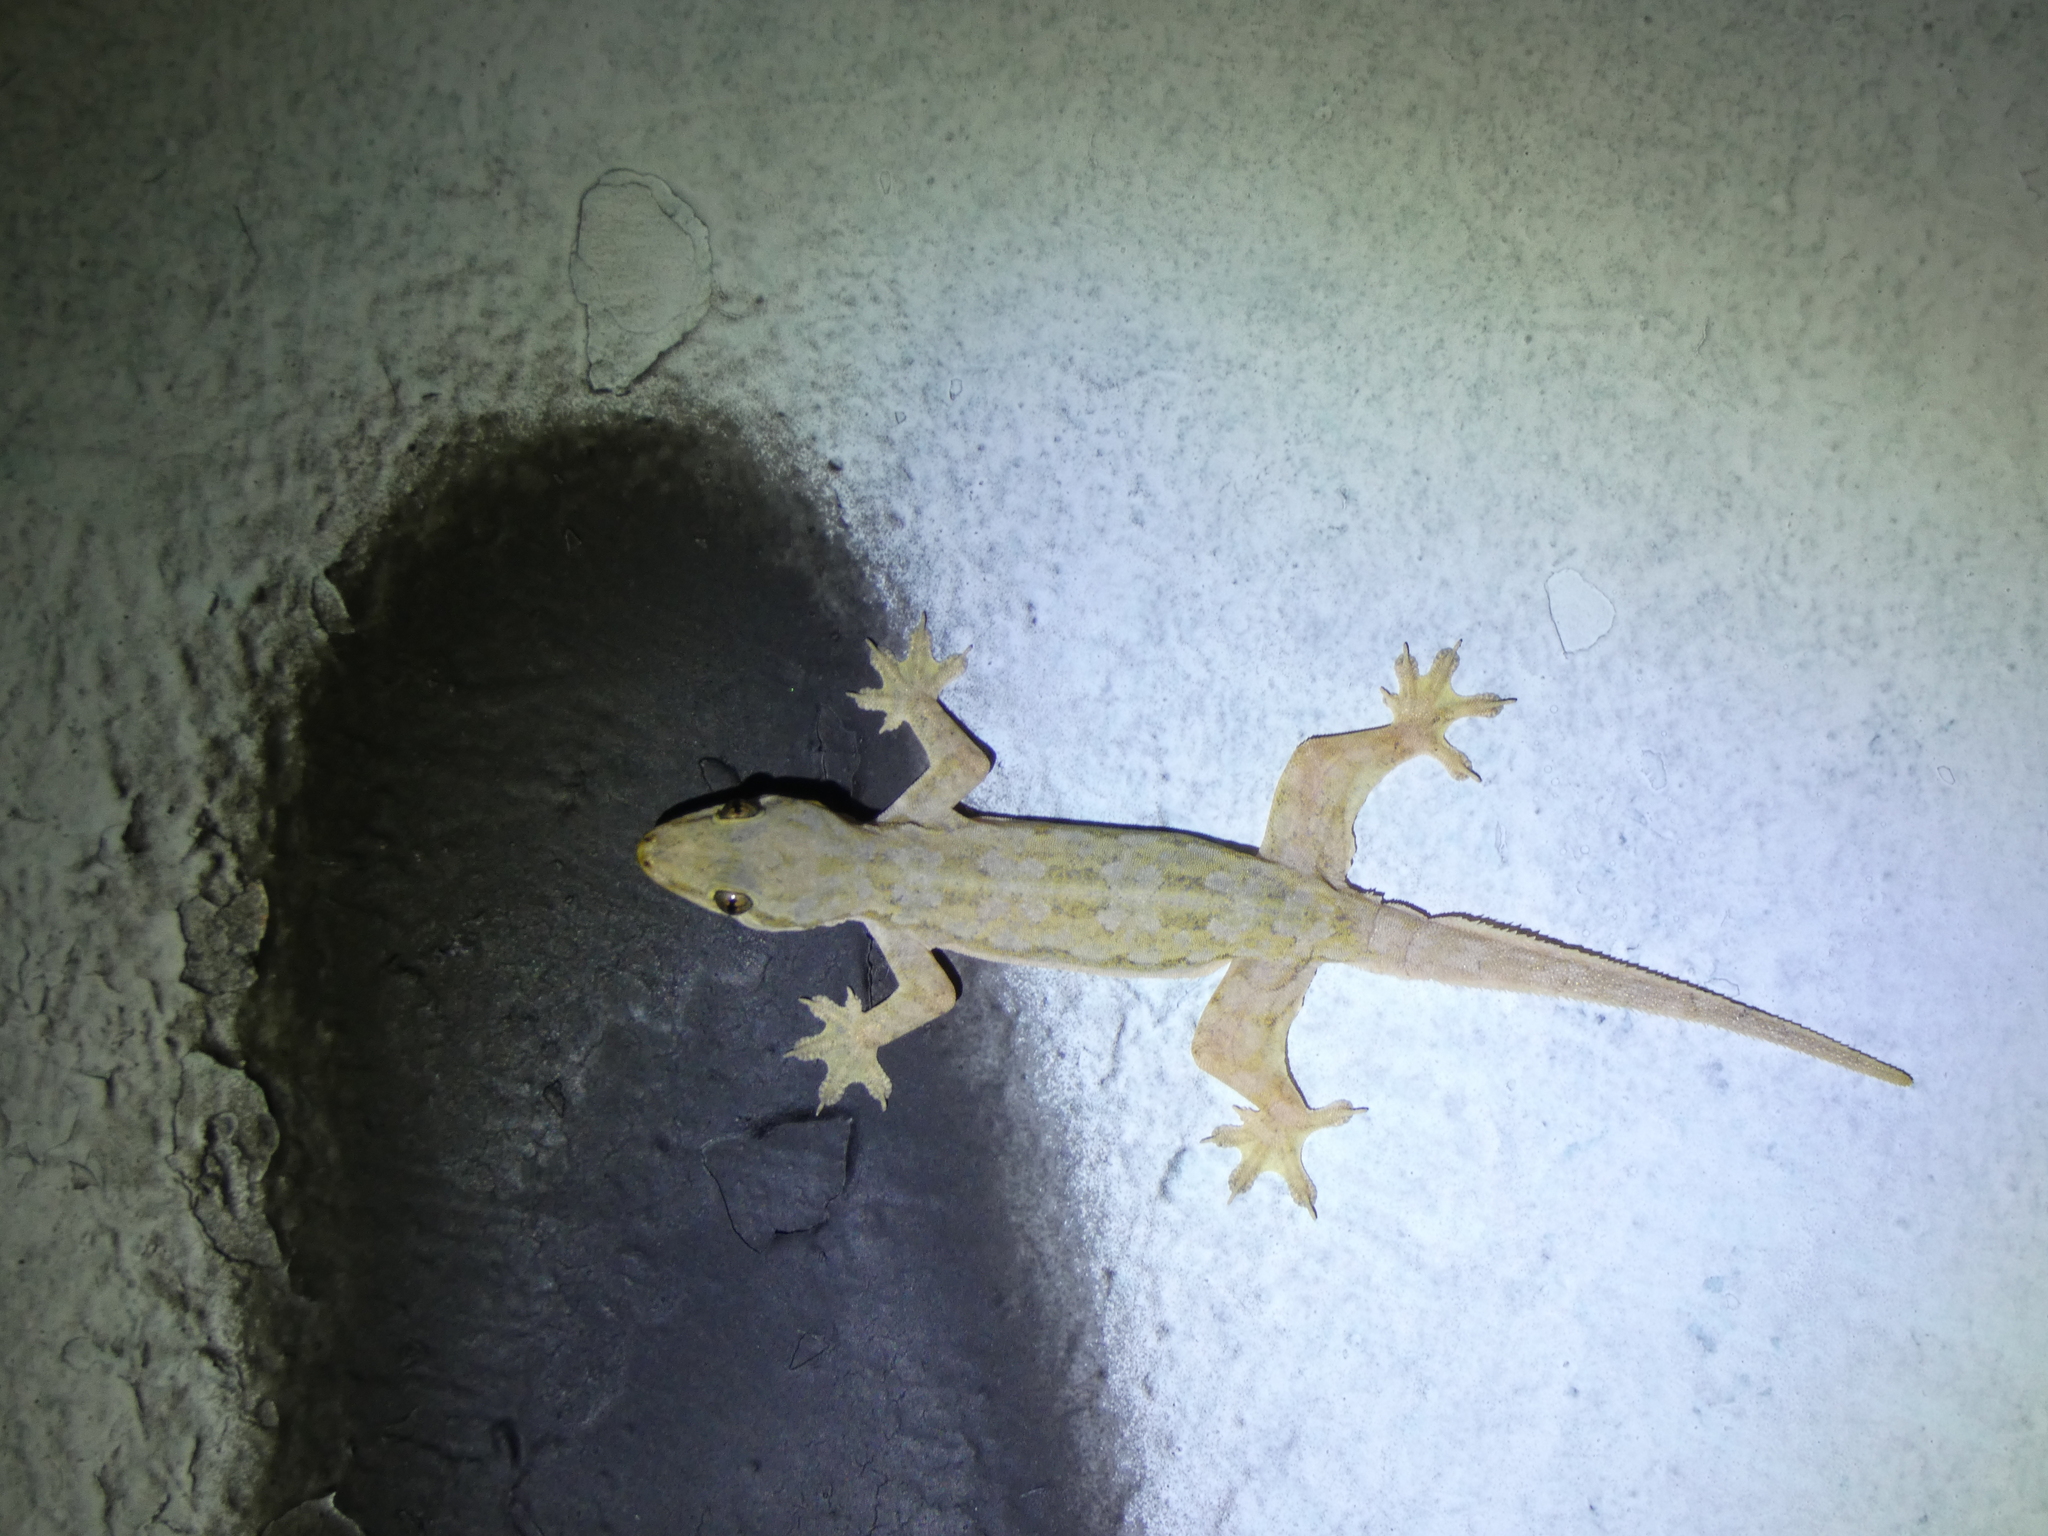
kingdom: Animalia
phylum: Chordata
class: Squamata
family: Gekkonidae
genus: Hemidactylus
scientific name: Hemidactylus platyurus
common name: Flat-tailed house gecko
